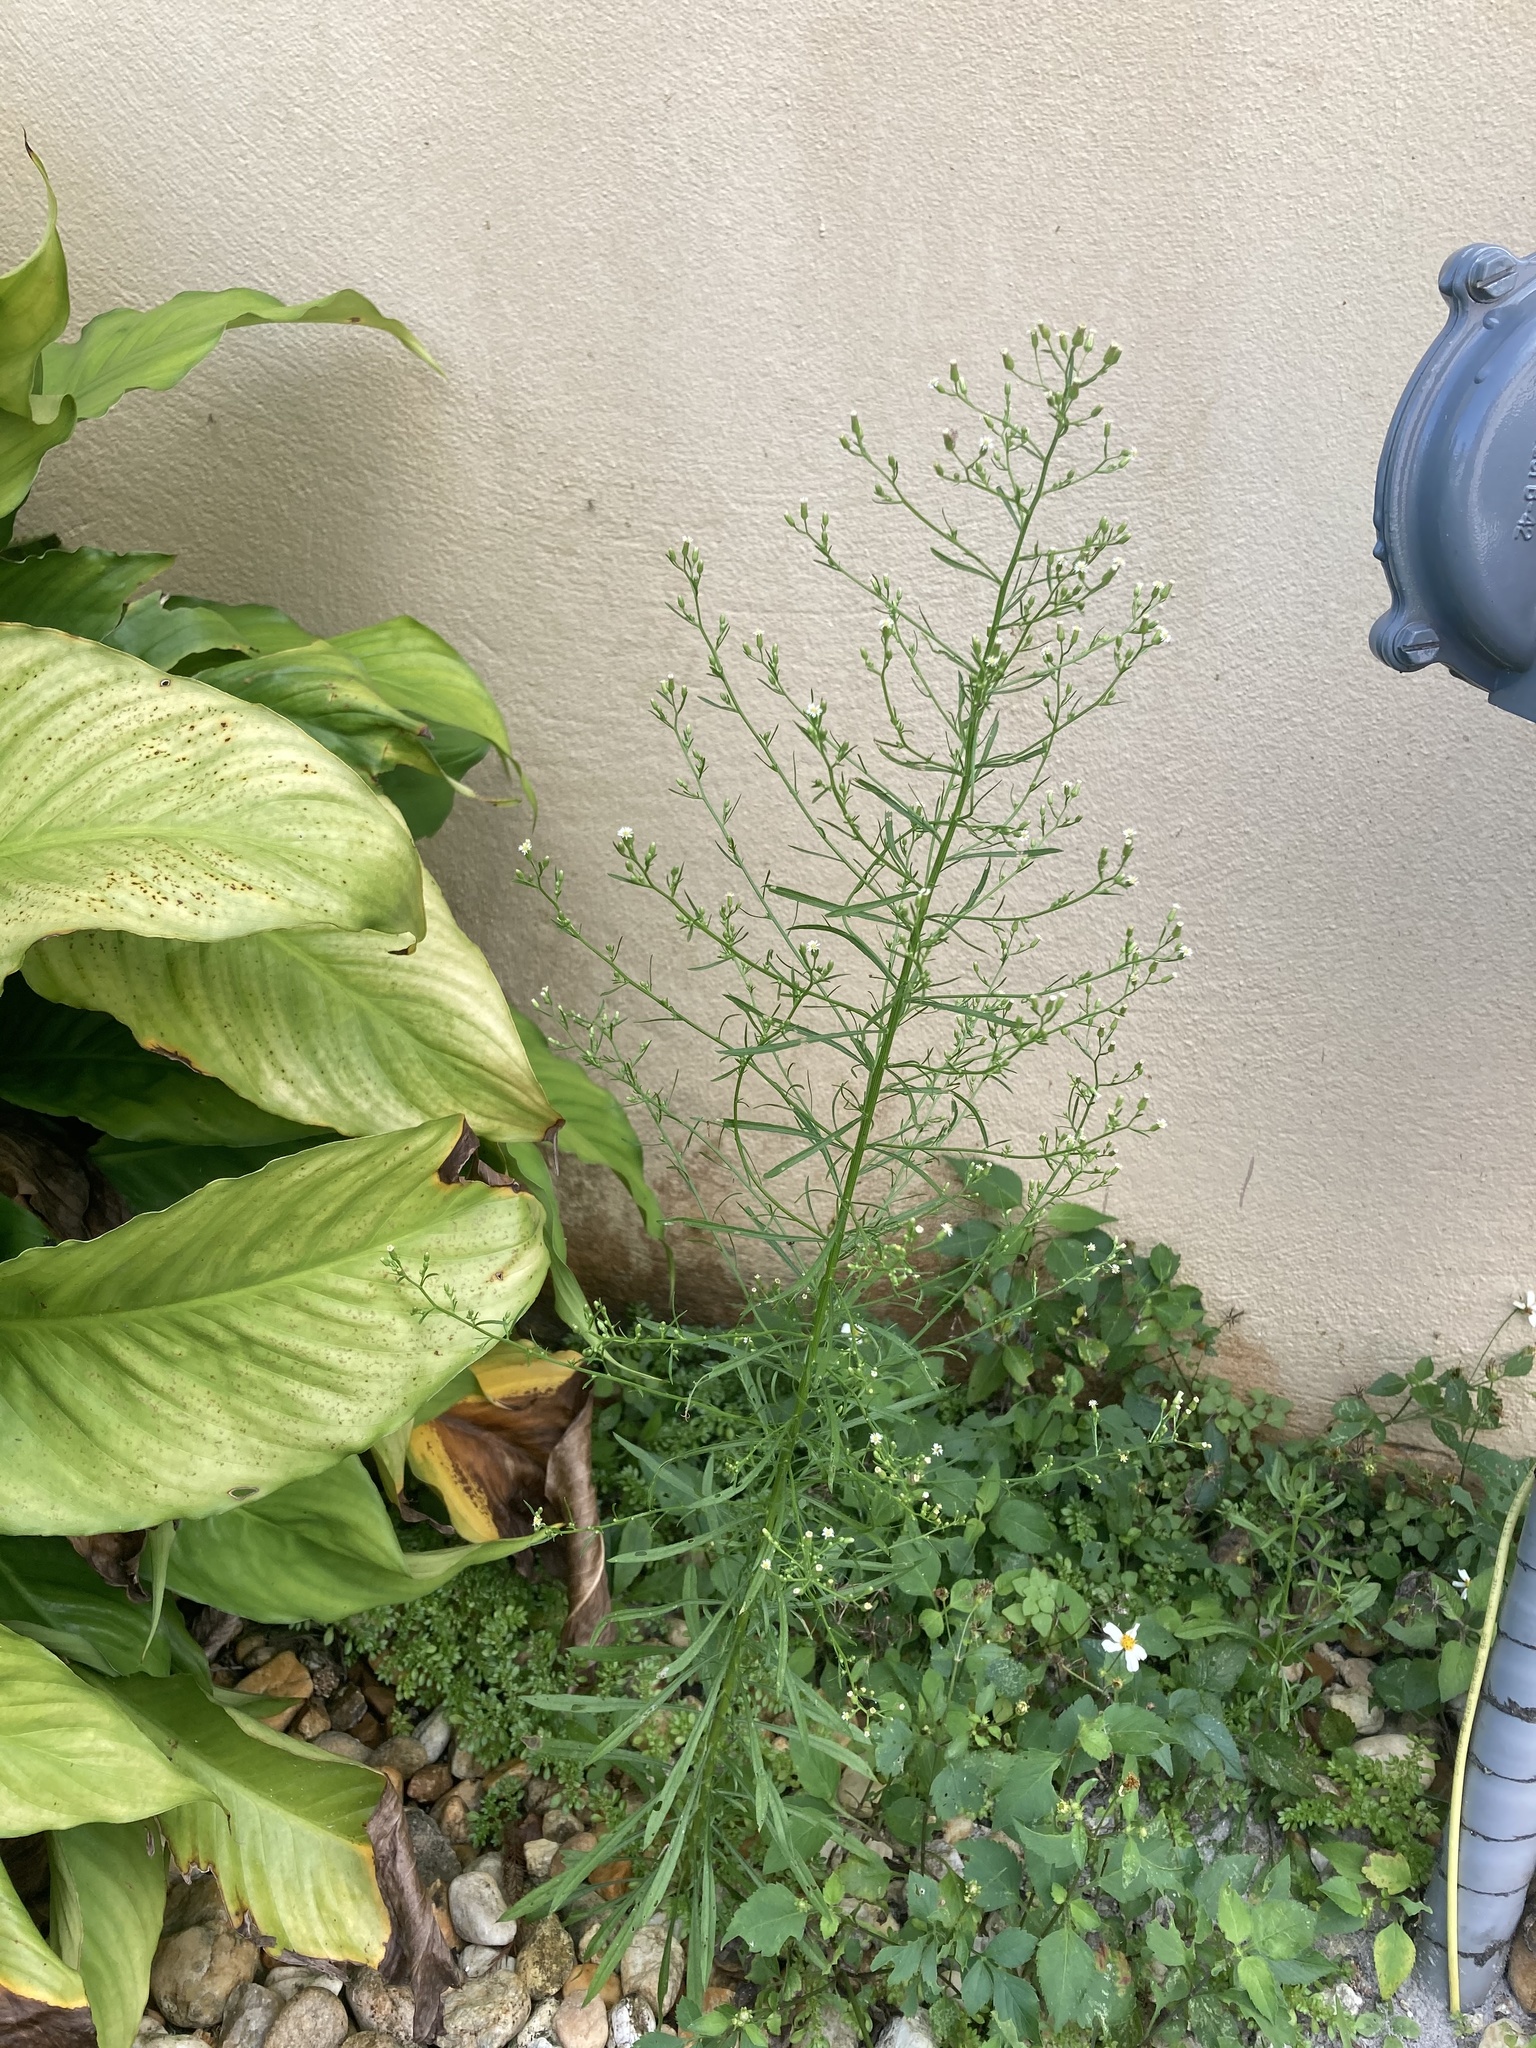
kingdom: Plantae
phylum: Tracheophyta
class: Magnoliopsida
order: Asterales
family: Asteraceae
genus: Erigeron
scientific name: Erigeron canadensis
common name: Canadian fleabane
